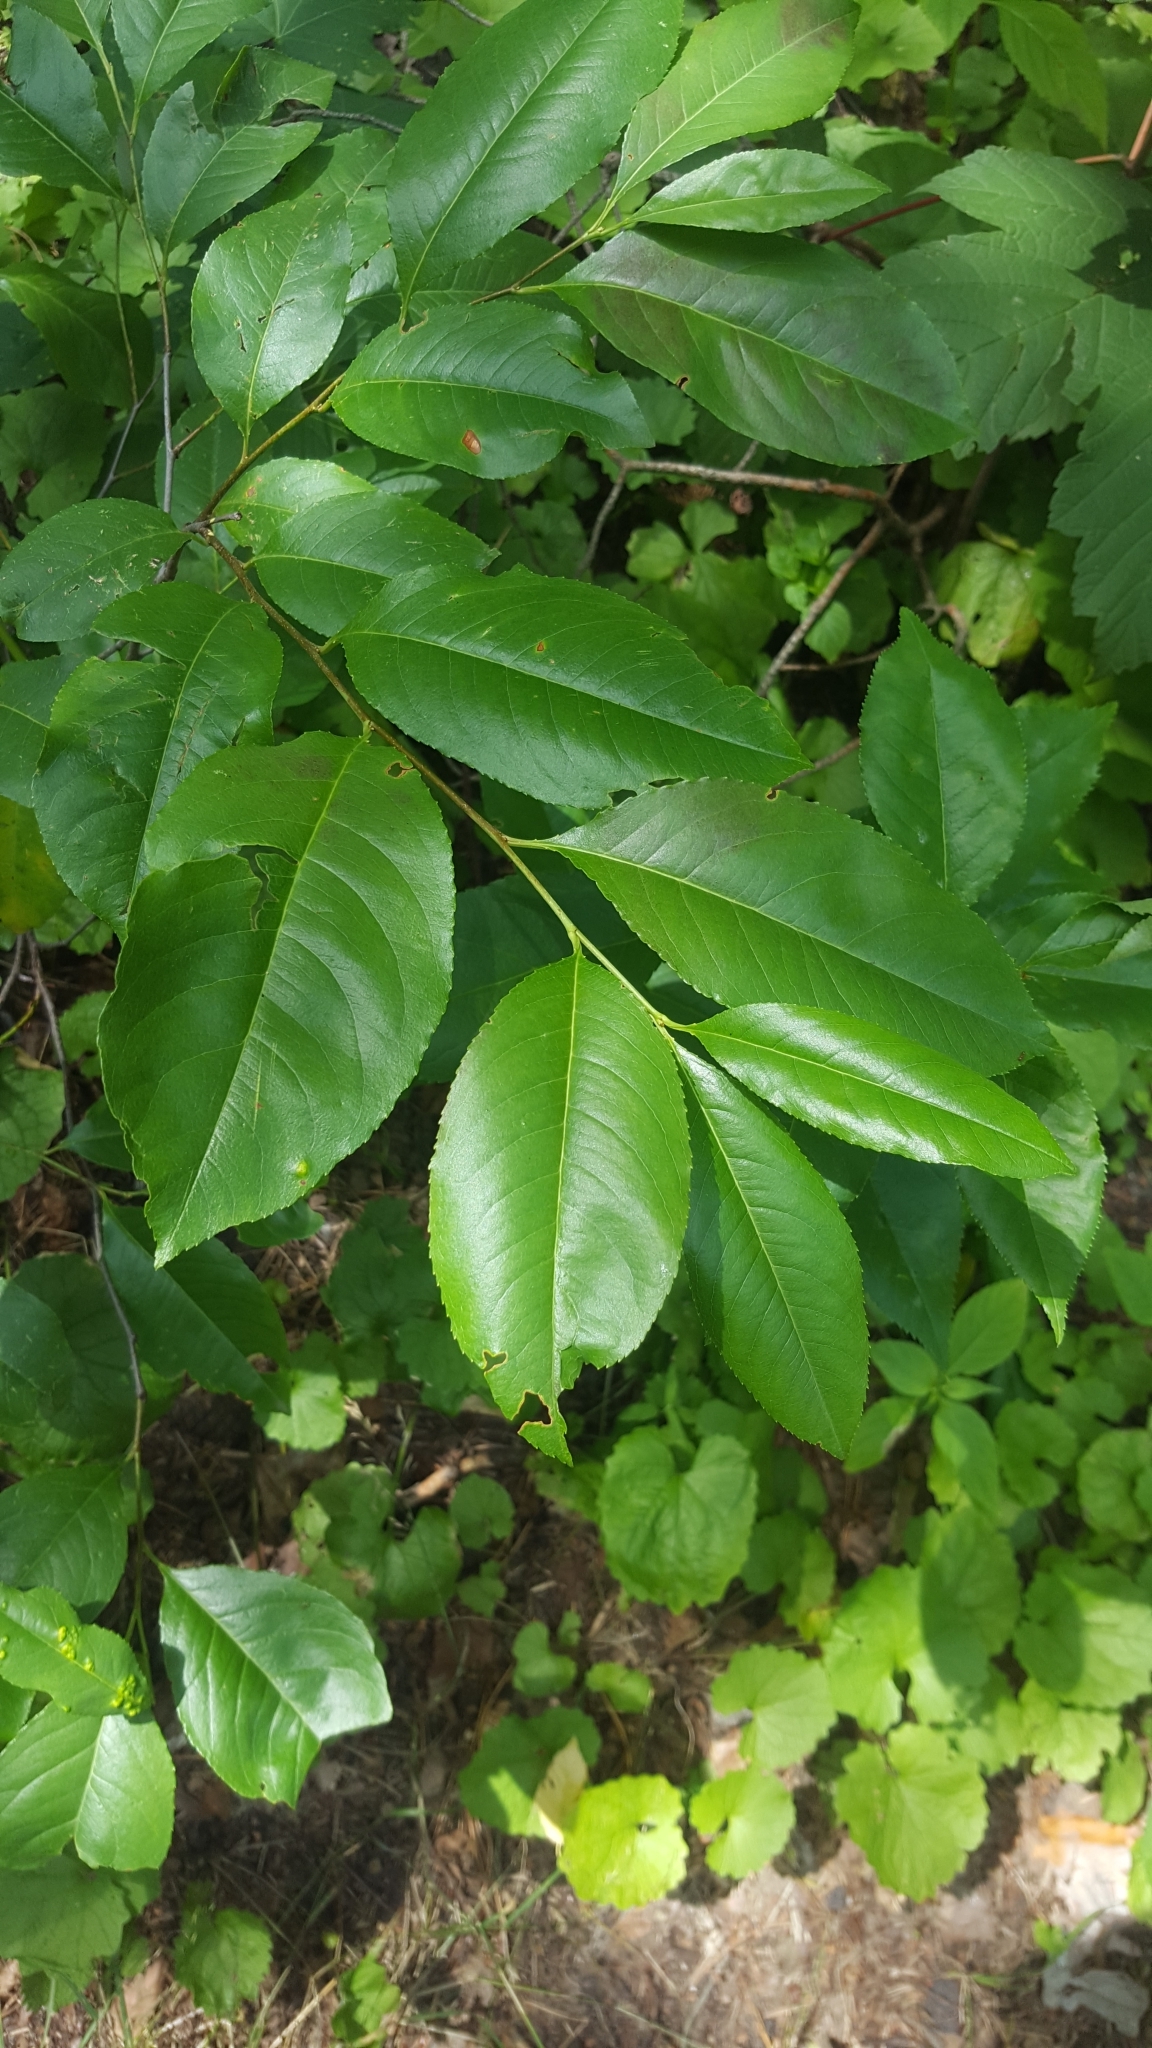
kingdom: Plantae
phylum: Tracheophyta
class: Magnoliopsida
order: Rosales
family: Rosaceae
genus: Prunus
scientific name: Prunus serotina
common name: Black cherry
